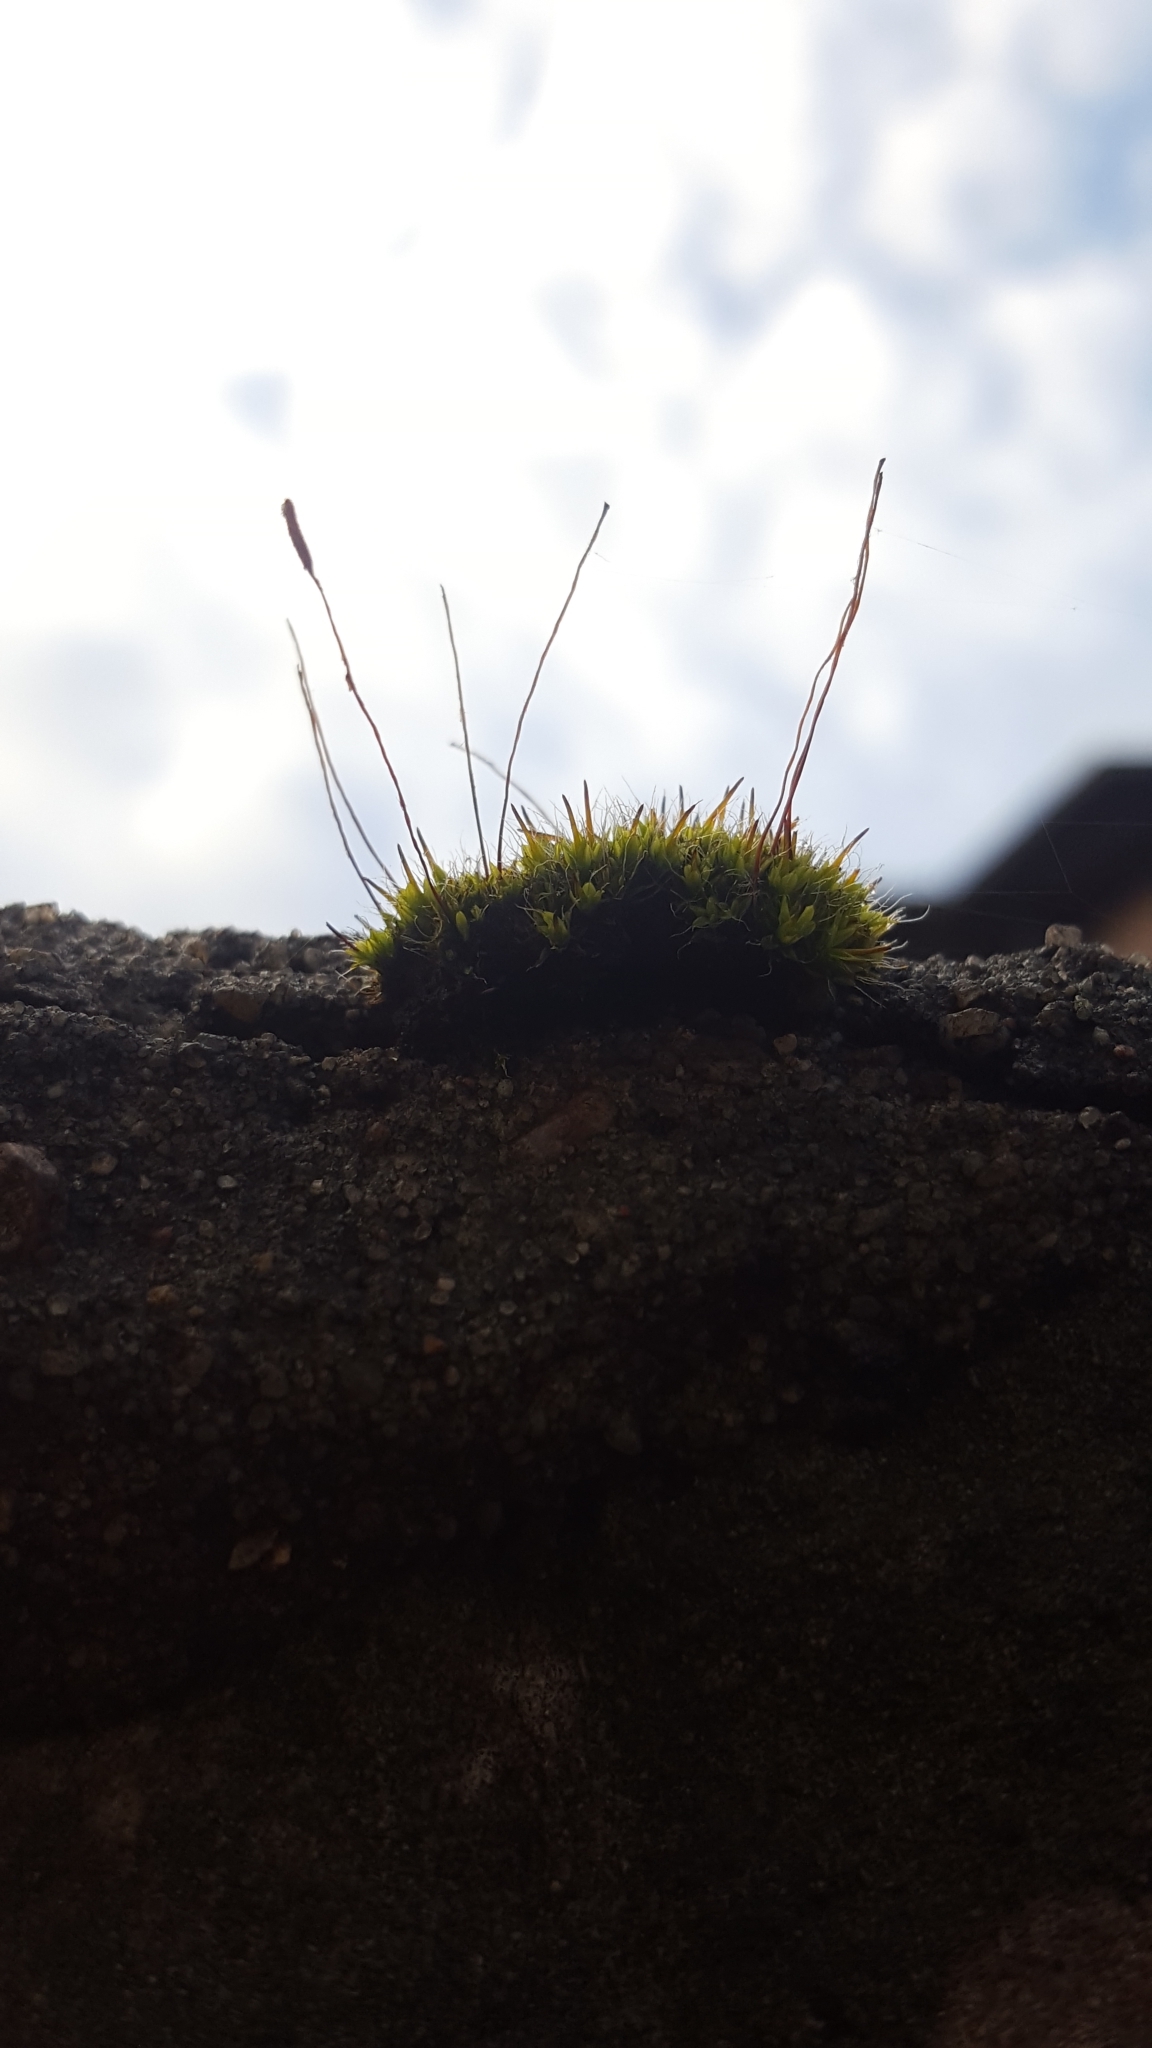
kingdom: Plantae
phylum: Bryophyta
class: Bryopsida
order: Pottiales
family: Pottiaceae
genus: Tortula
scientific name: Tortula muralis
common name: Wall screw-moss
